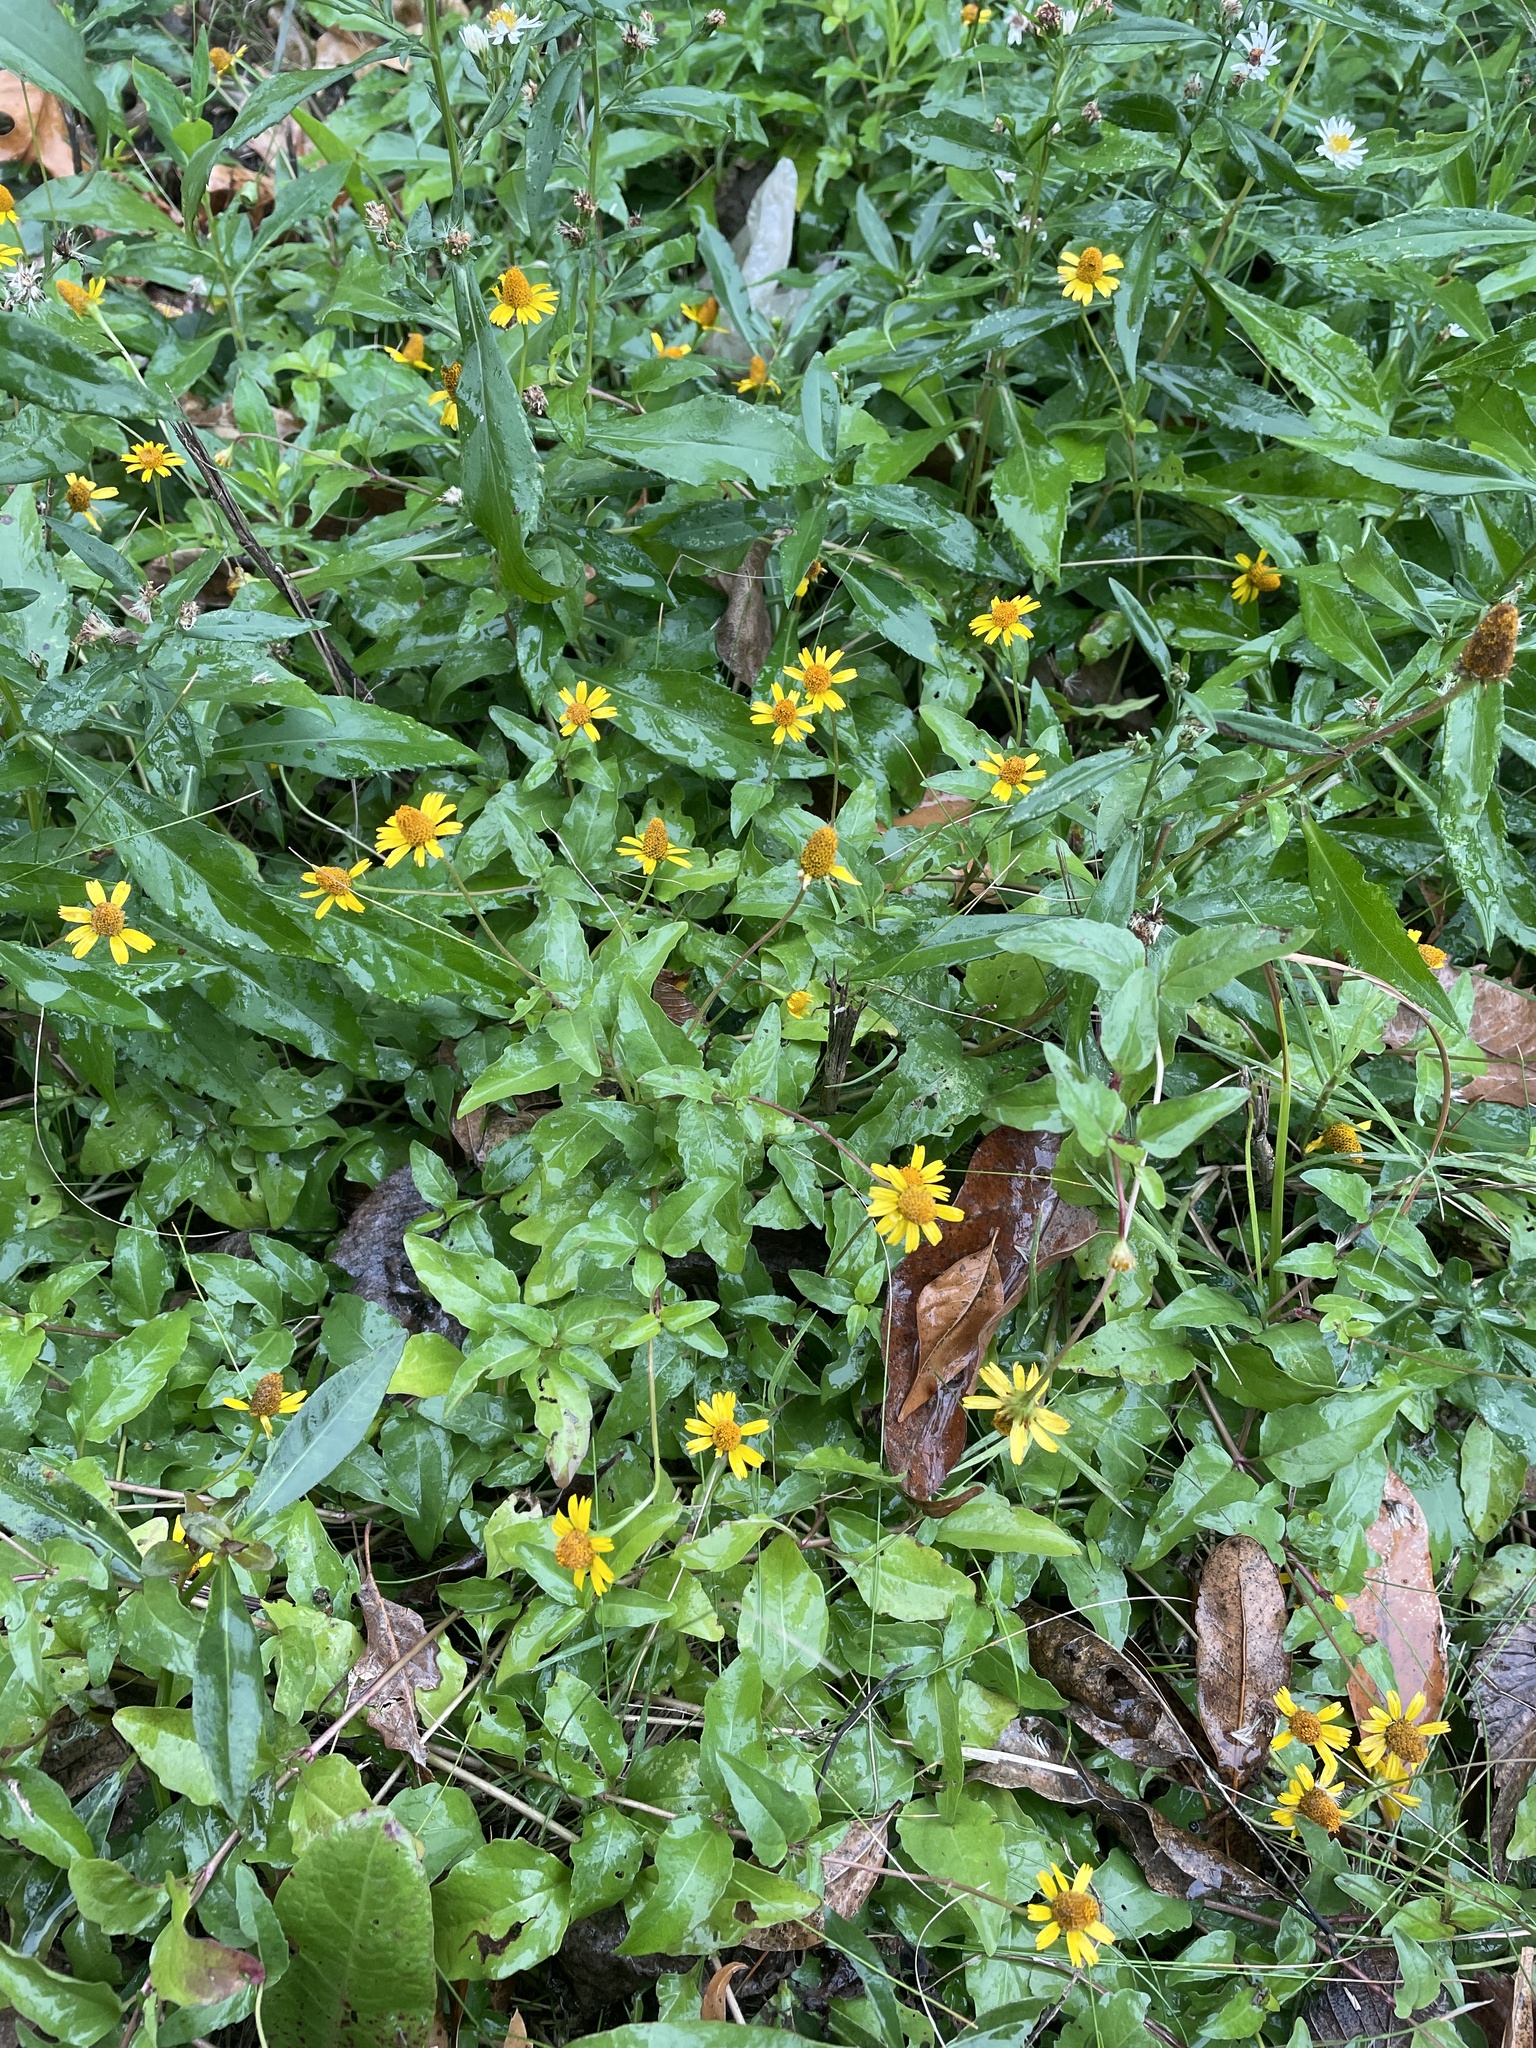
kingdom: Plantae
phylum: Tracheophyta
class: Magnoliopsida
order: Asterales
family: Asteraceae
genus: Acmella
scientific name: Acmella repens
